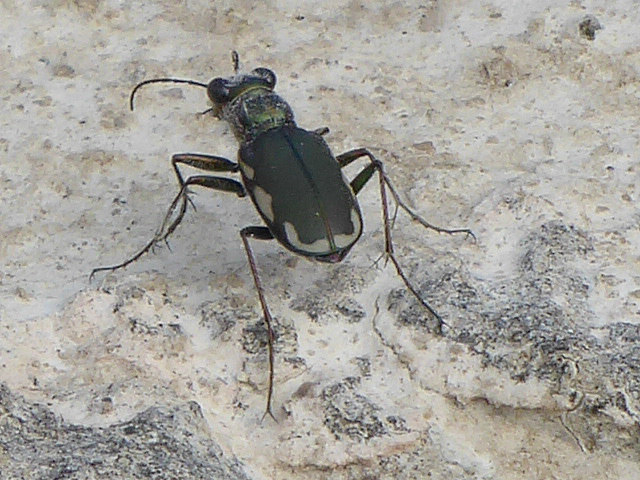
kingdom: Animalia
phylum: Arthropoda
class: Insecta
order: Coleoptera
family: Carabidae
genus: Cicindela
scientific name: Cicindela scutellaris
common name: Festive tiger beetle
